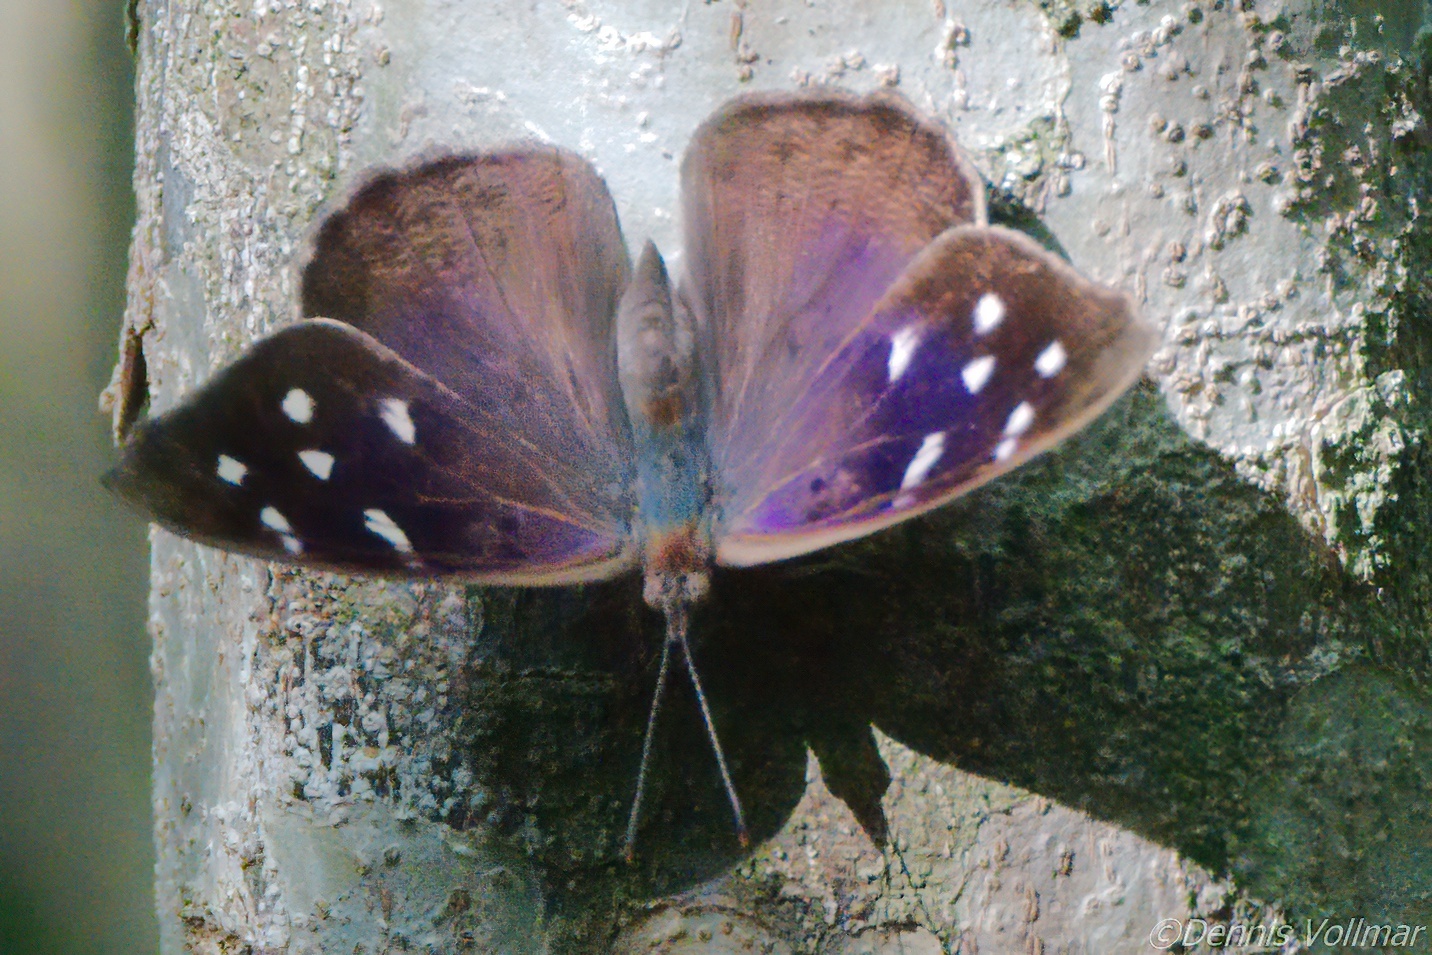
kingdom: Animalia
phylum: Arthropoda
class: Insecta
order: Lepidoptera
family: Nymphalidae
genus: Eunica
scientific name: Eunica tatila
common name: Florida purplewing
